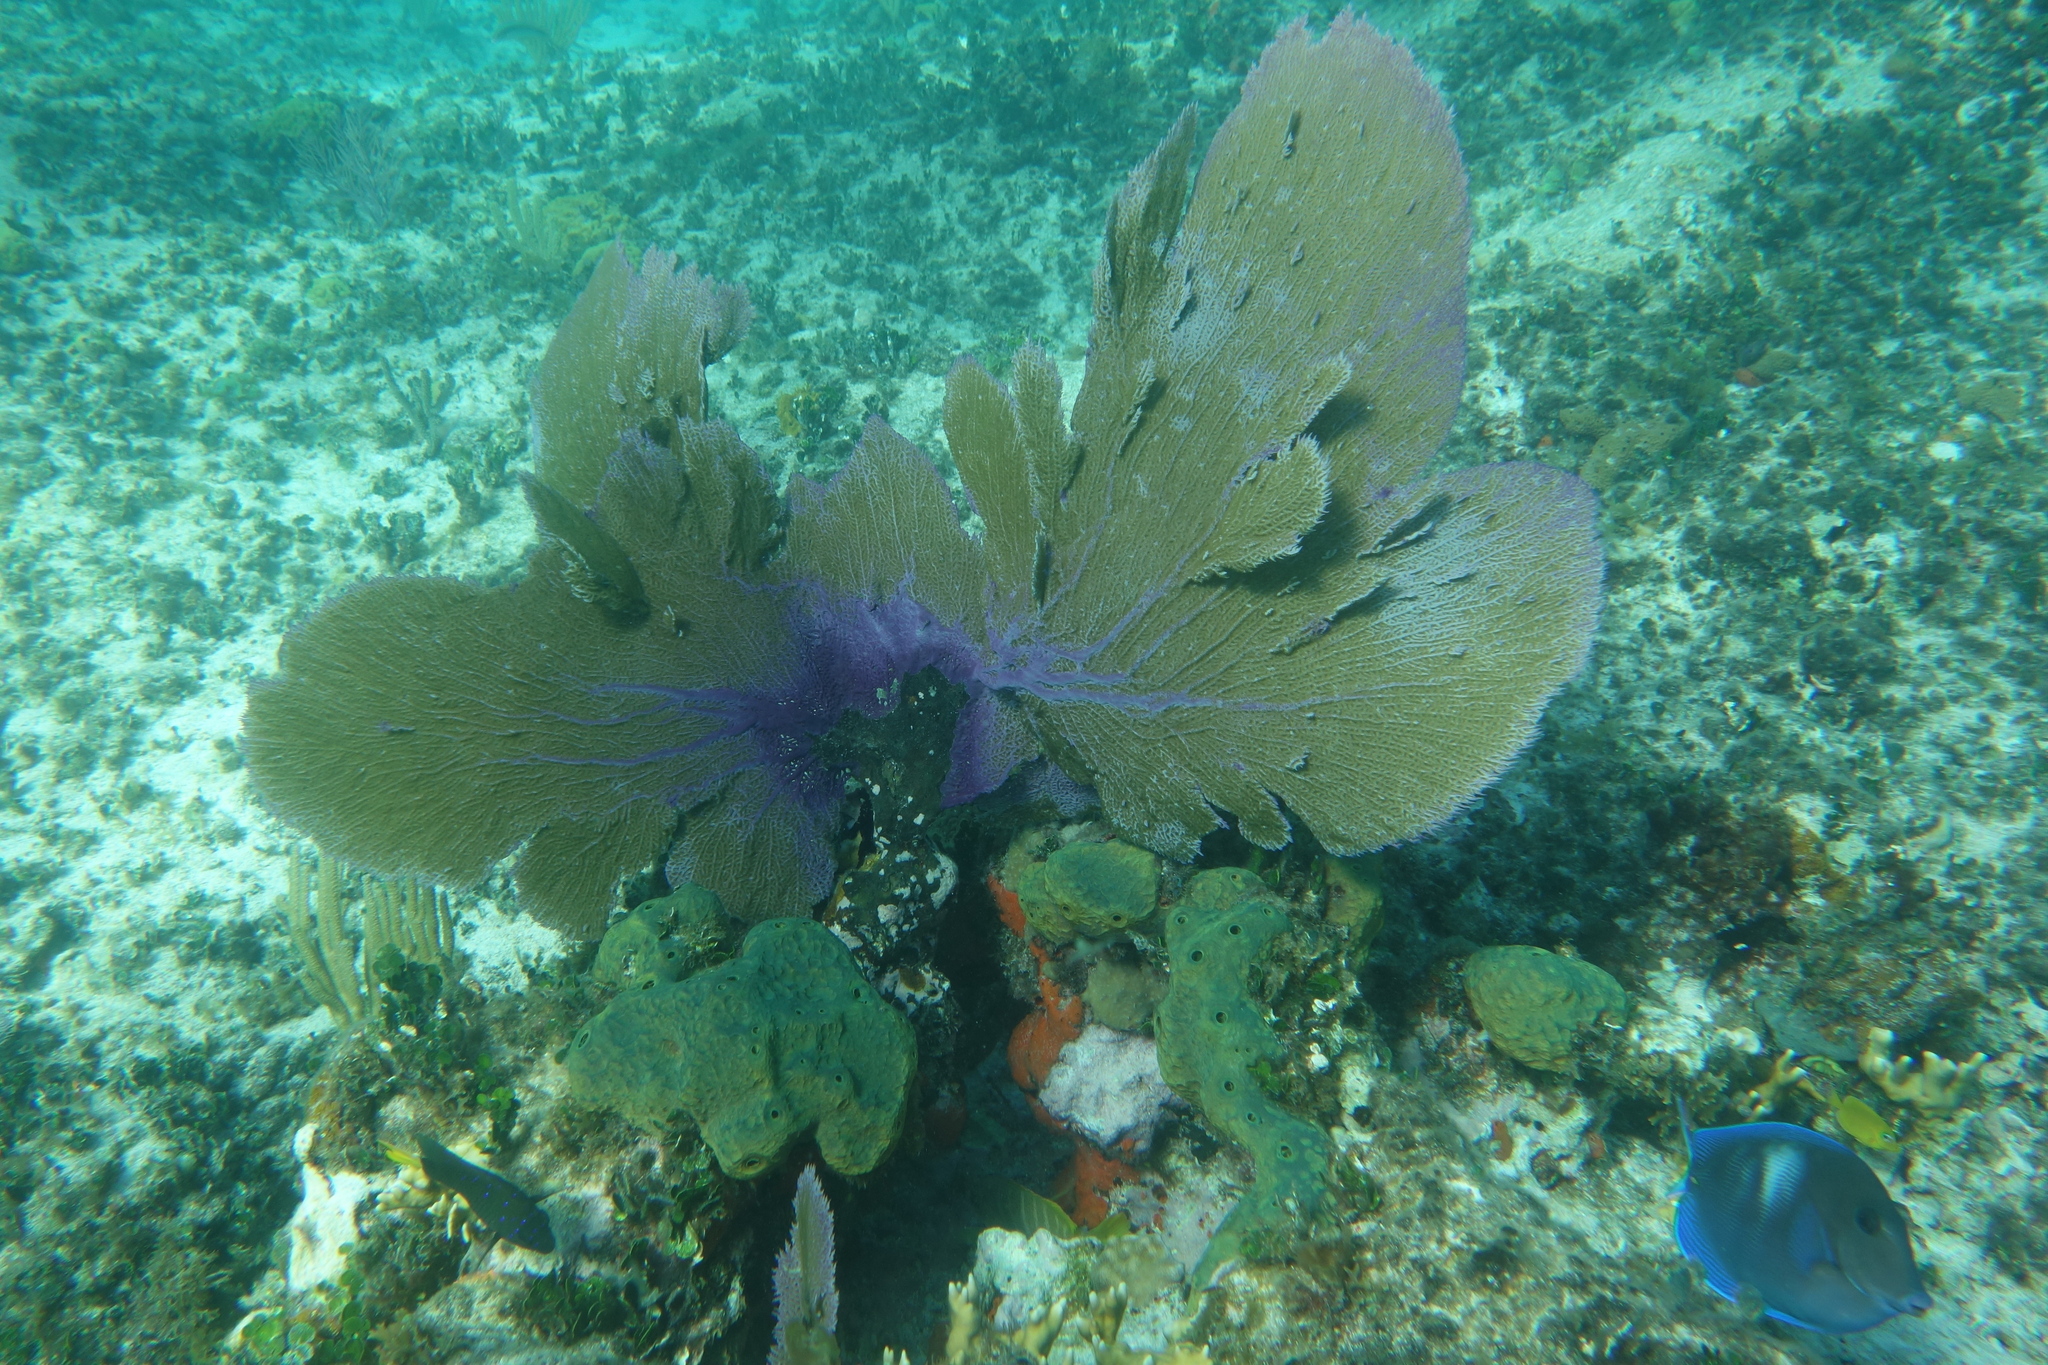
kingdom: Animalia
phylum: Cnidaria
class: Anthozoa
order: Malacalcyonacea
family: Gorgoniidae
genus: Gorgonia
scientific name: Gorgonia ventalina
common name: Common sea fan
